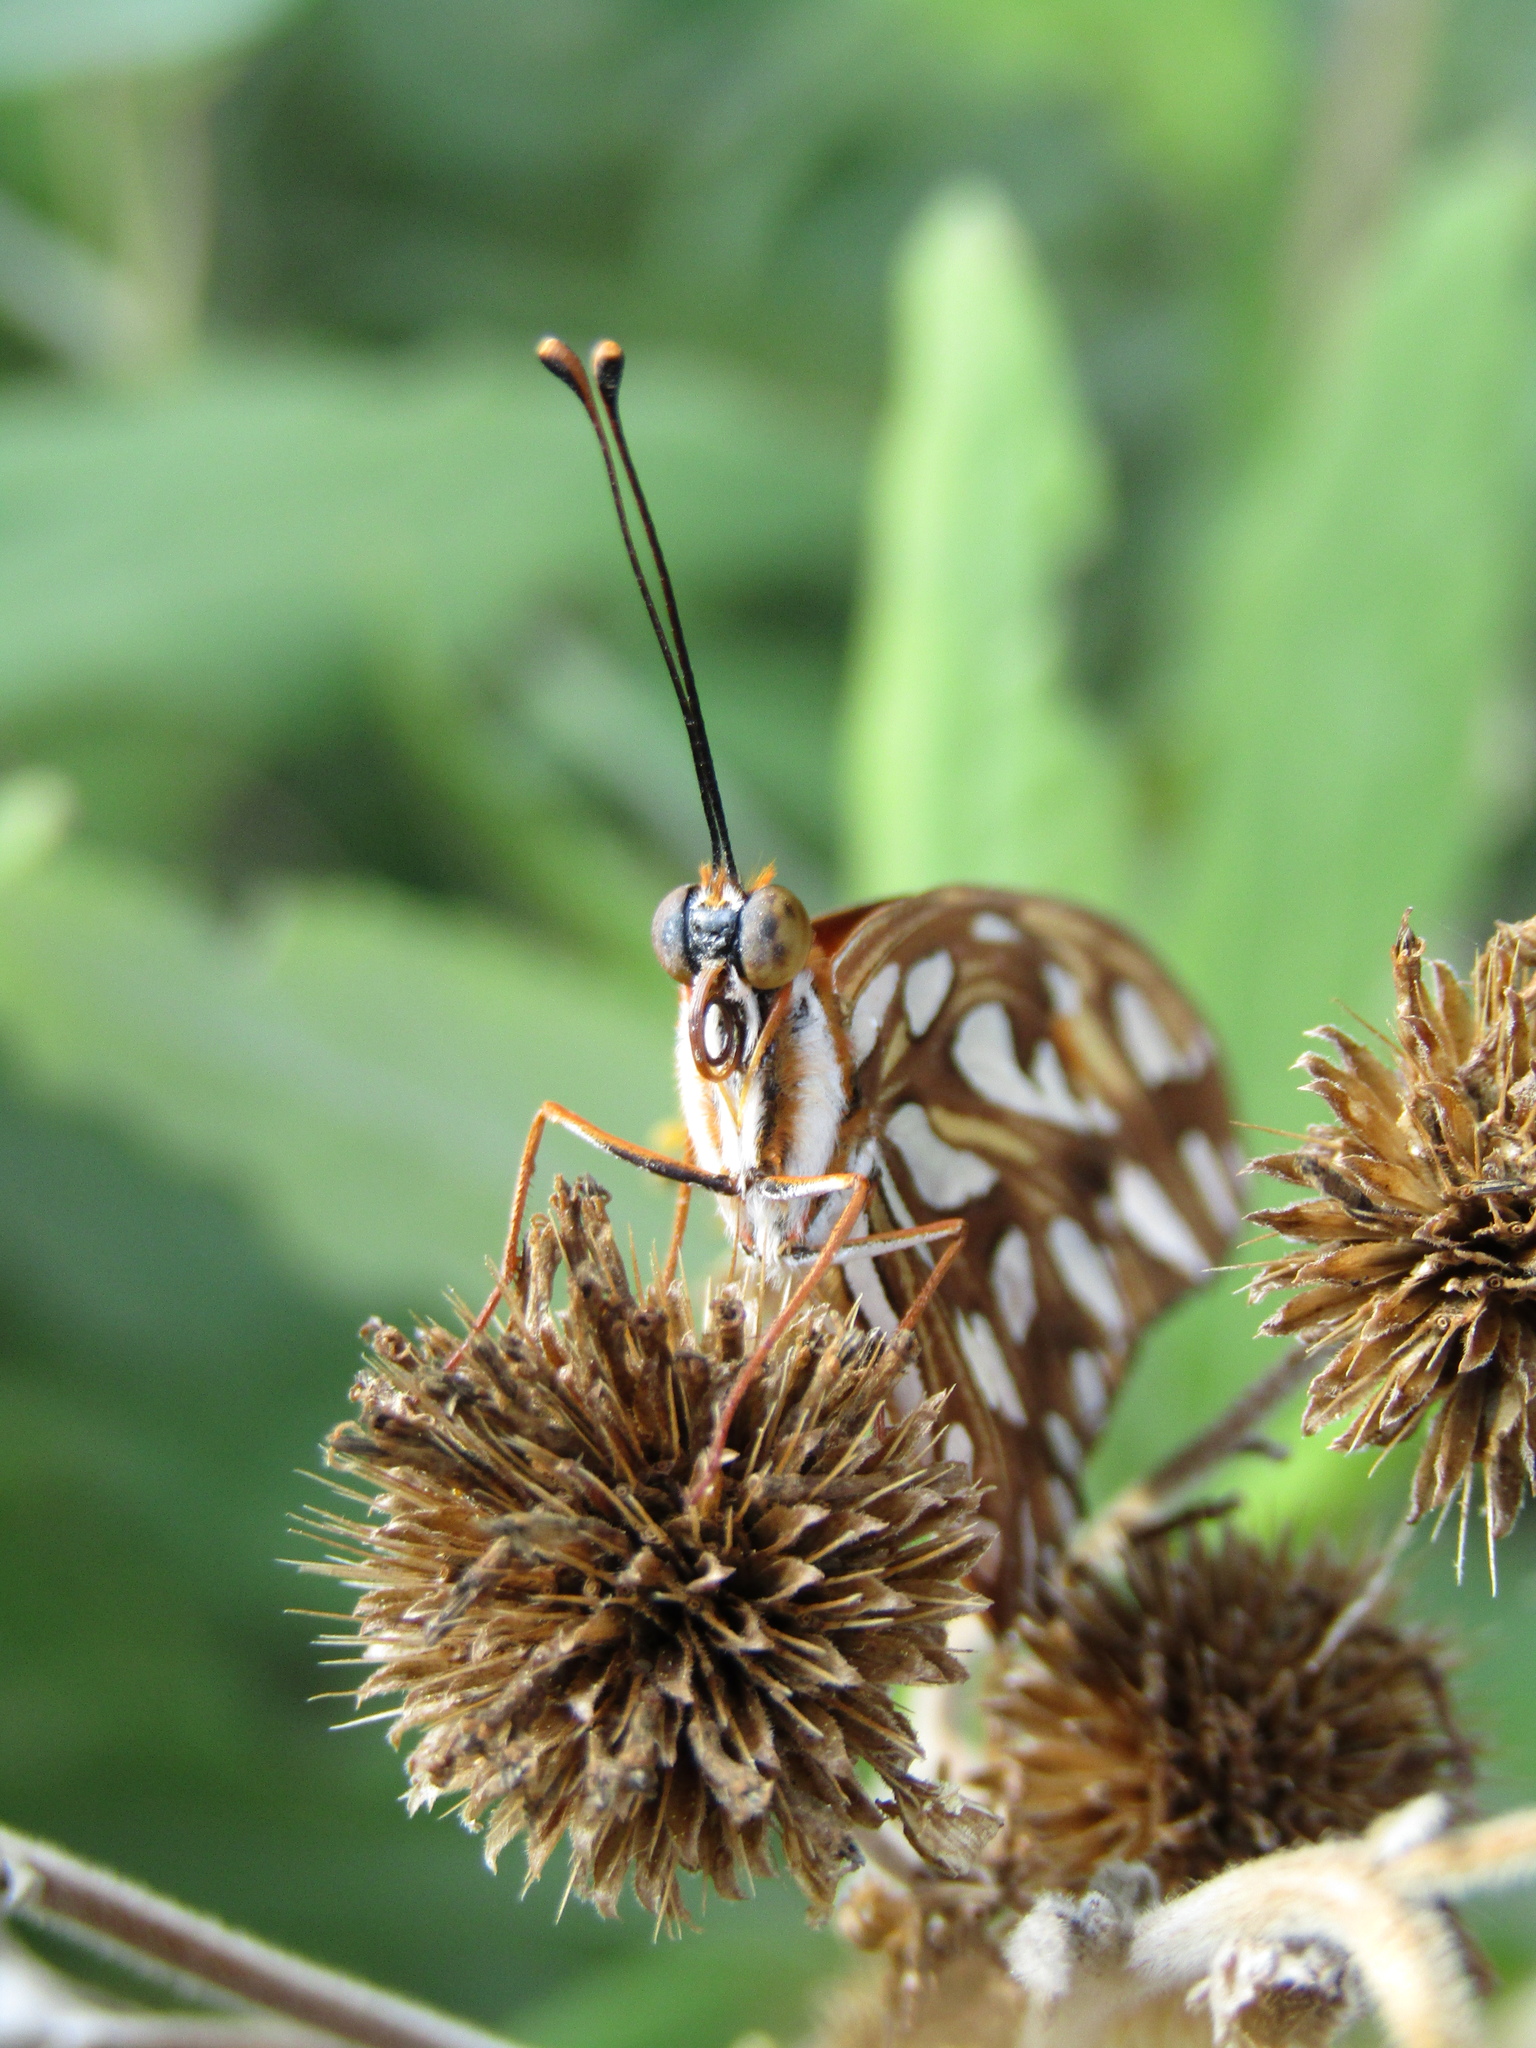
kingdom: Animalia
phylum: Arthropoda
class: Insecta
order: Lepidoptera
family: Nymphalidae
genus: Dione
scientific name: Dione vanillae
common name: Gulf fritillary
